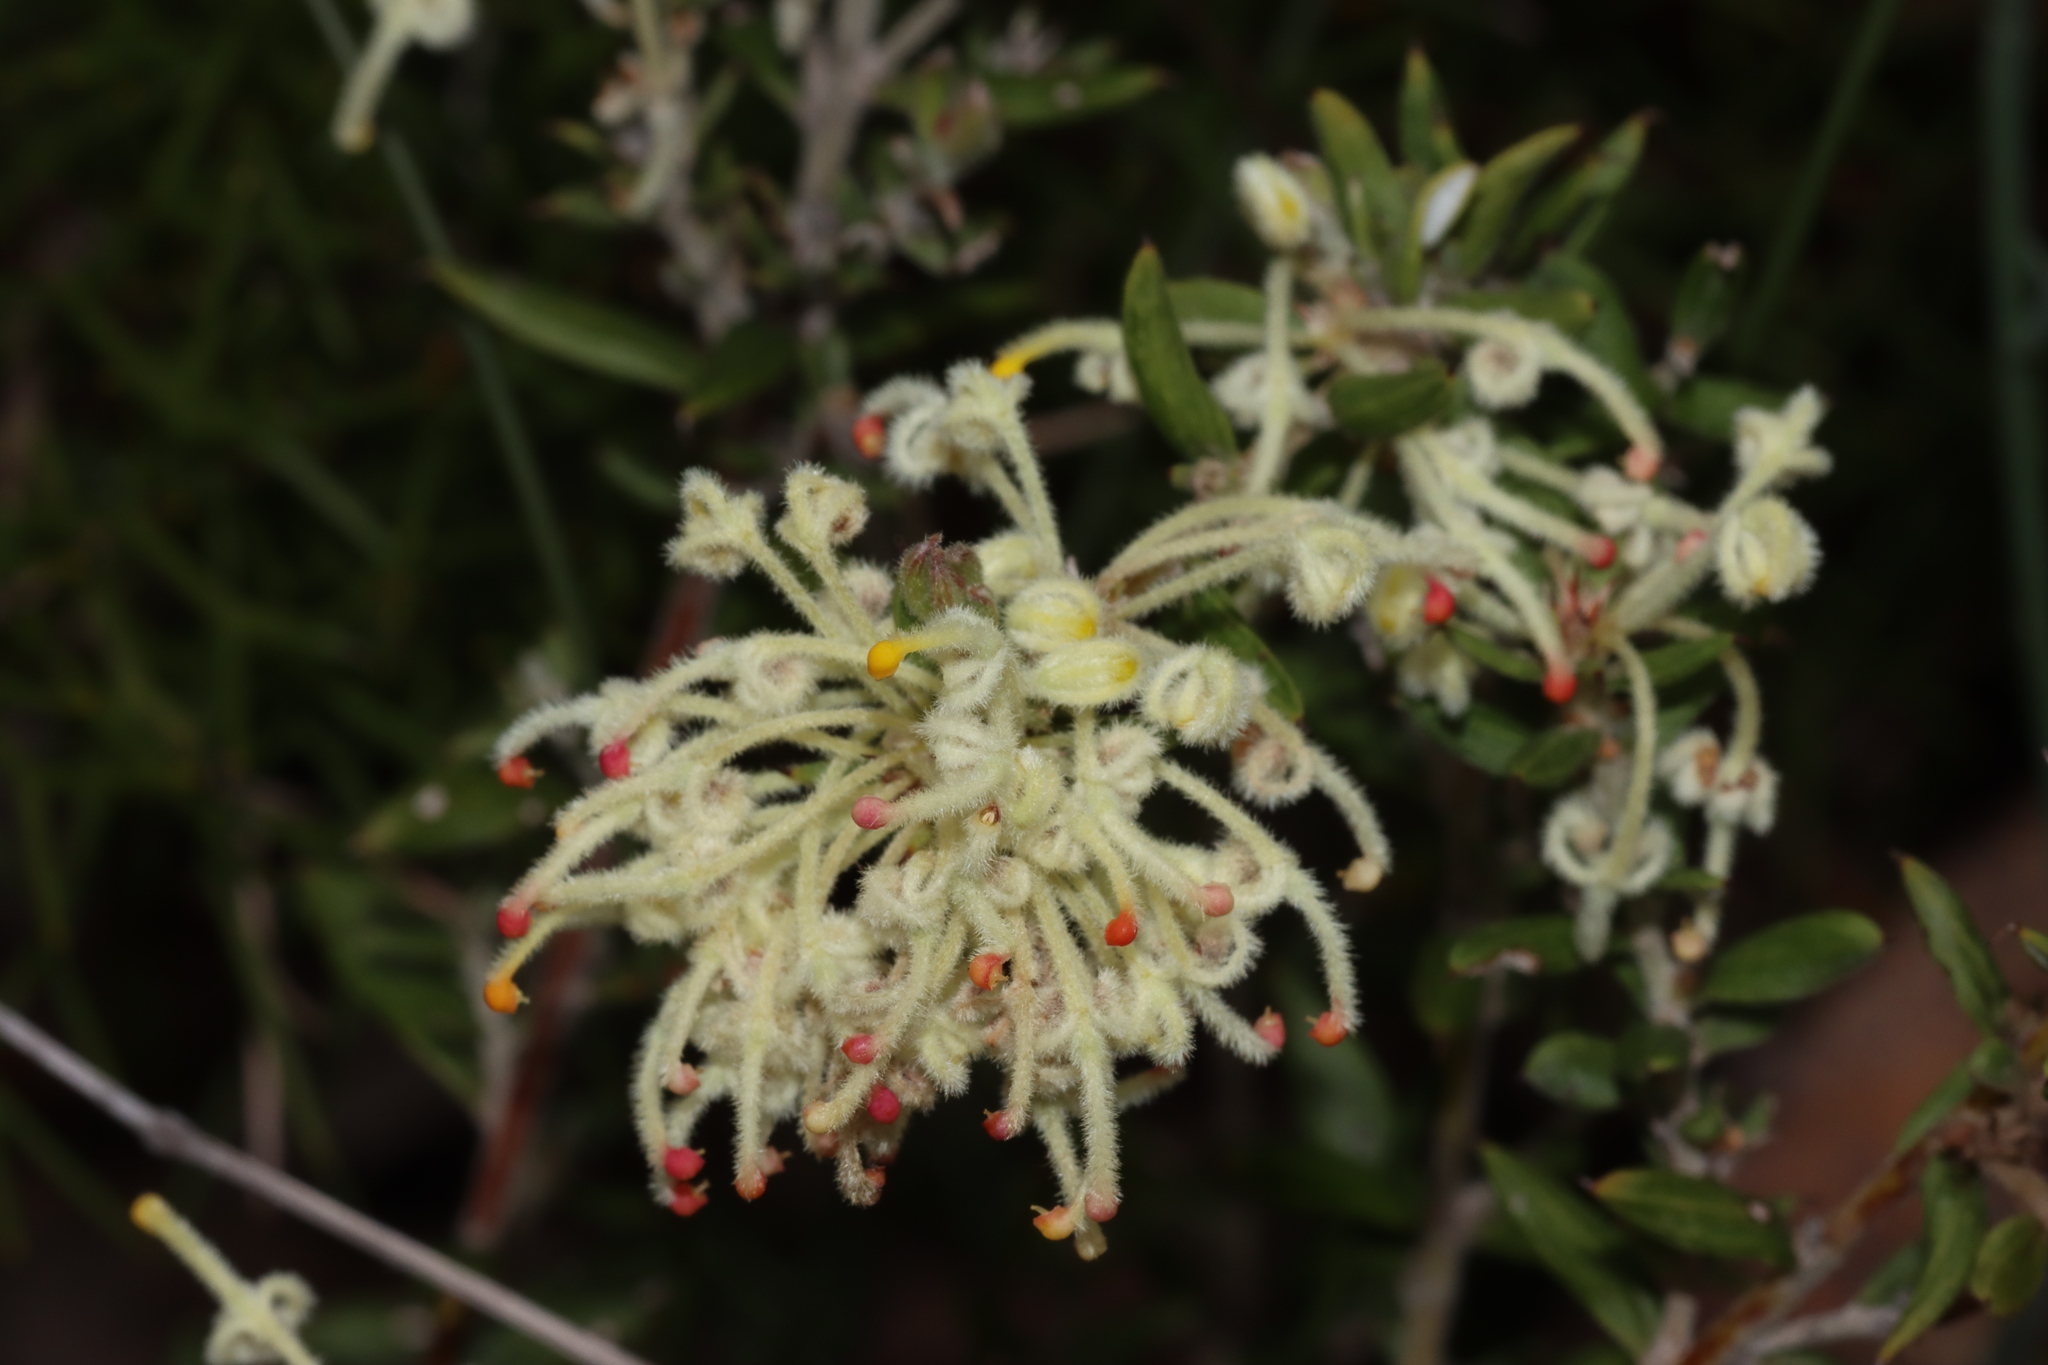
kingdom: Plantae
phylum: Tracheophyta
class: Magnoliopsida
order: Proteales
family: Proteaceae
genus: Grevillea
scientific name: Grevillea pilulifera
